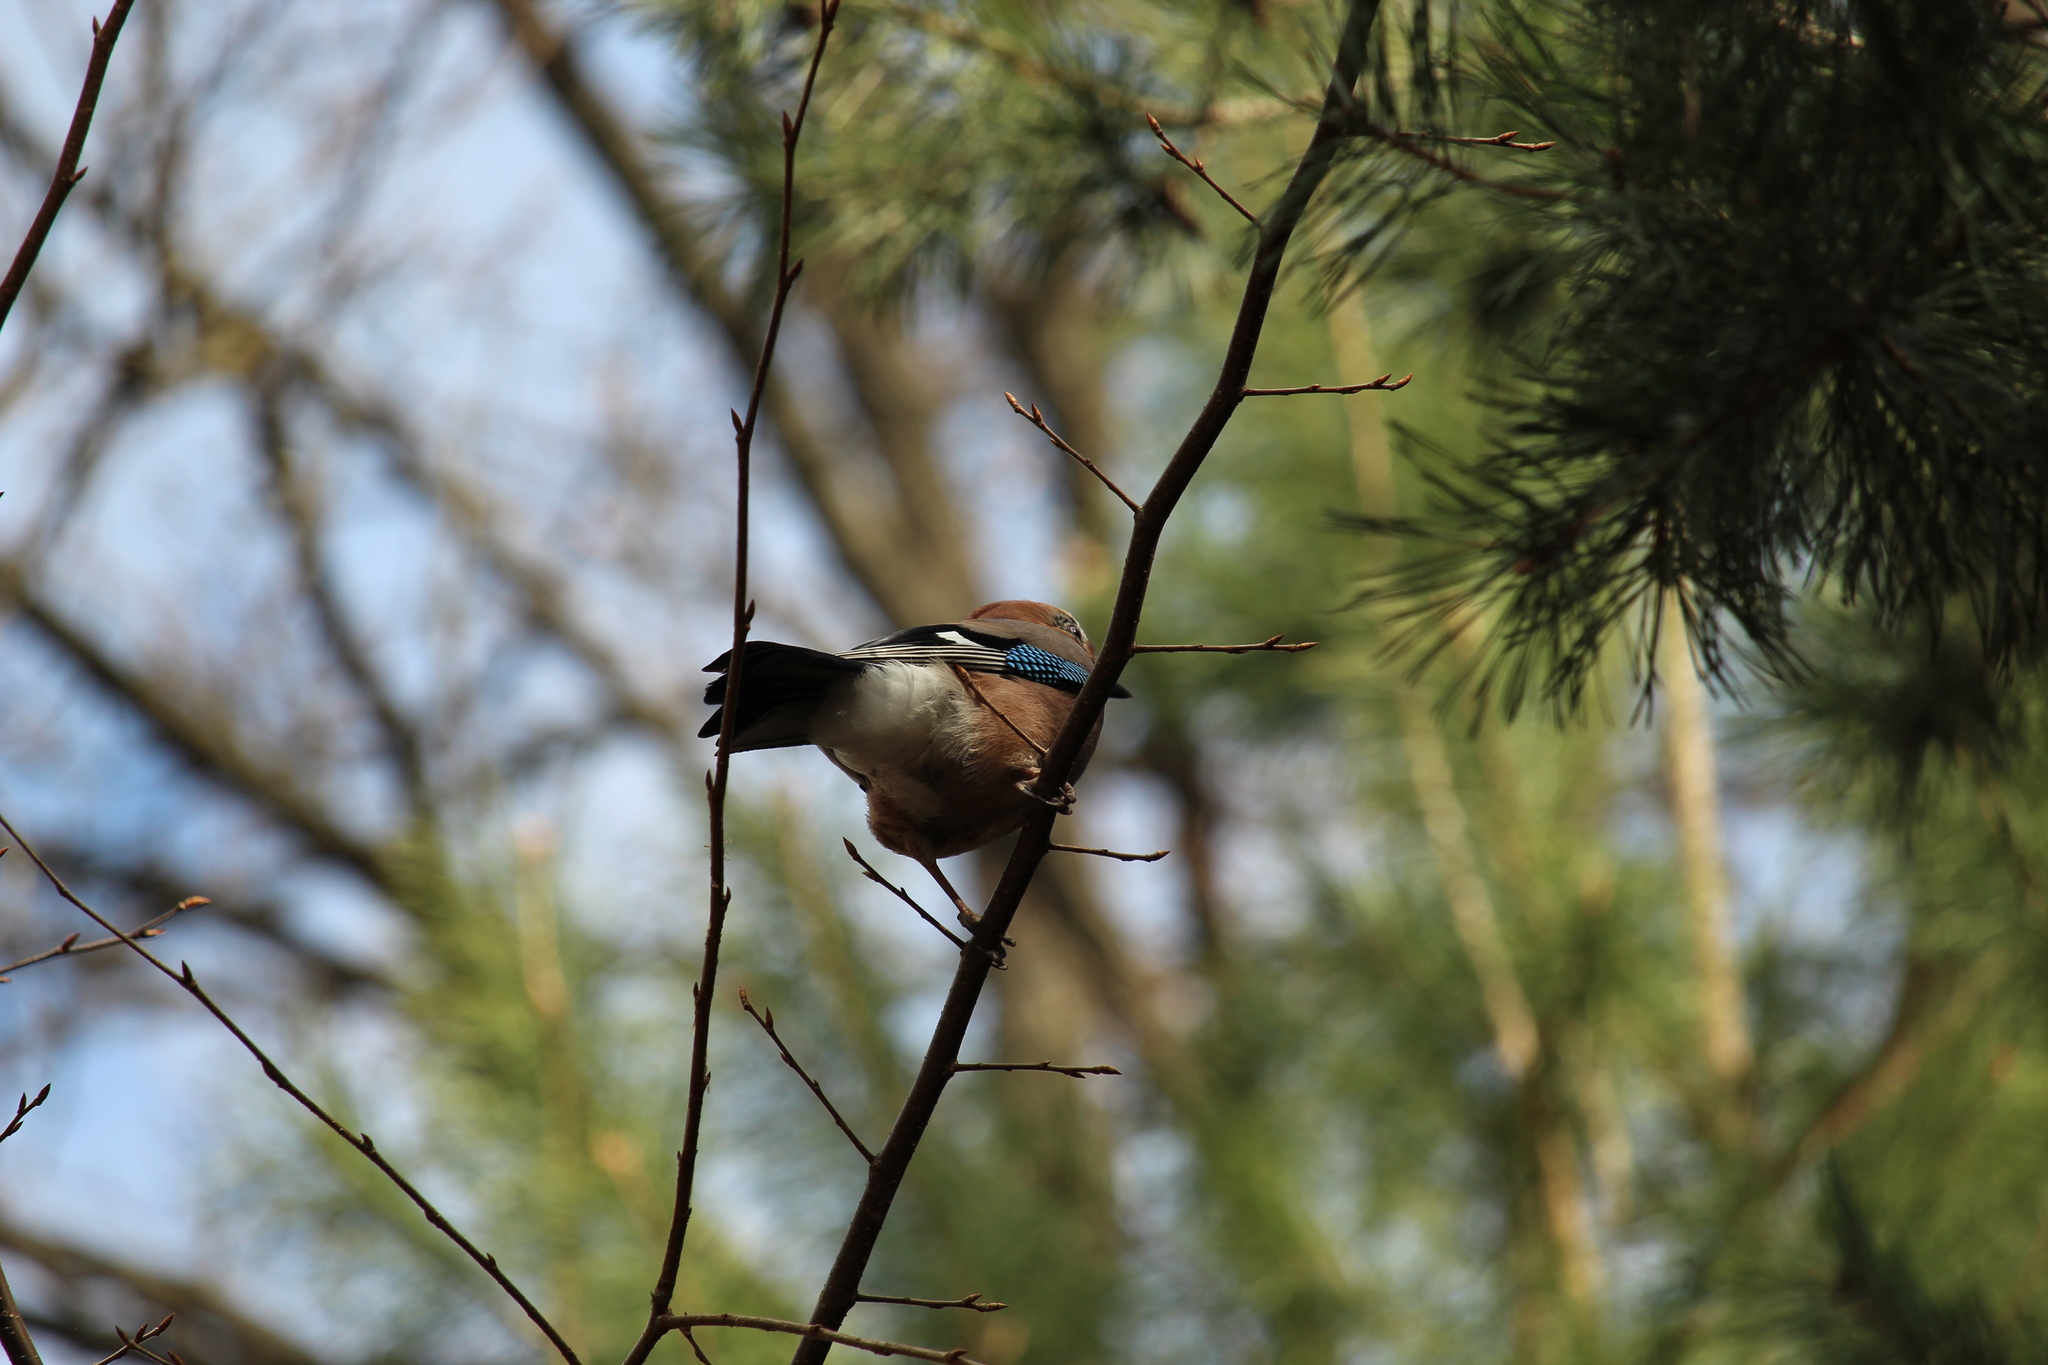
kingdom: Animalia
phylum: Chordata
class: Aves
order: Passeriformes
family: Corvidae
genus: Garrulus
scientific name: Garrulus glandarius
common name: Eurasian jay
